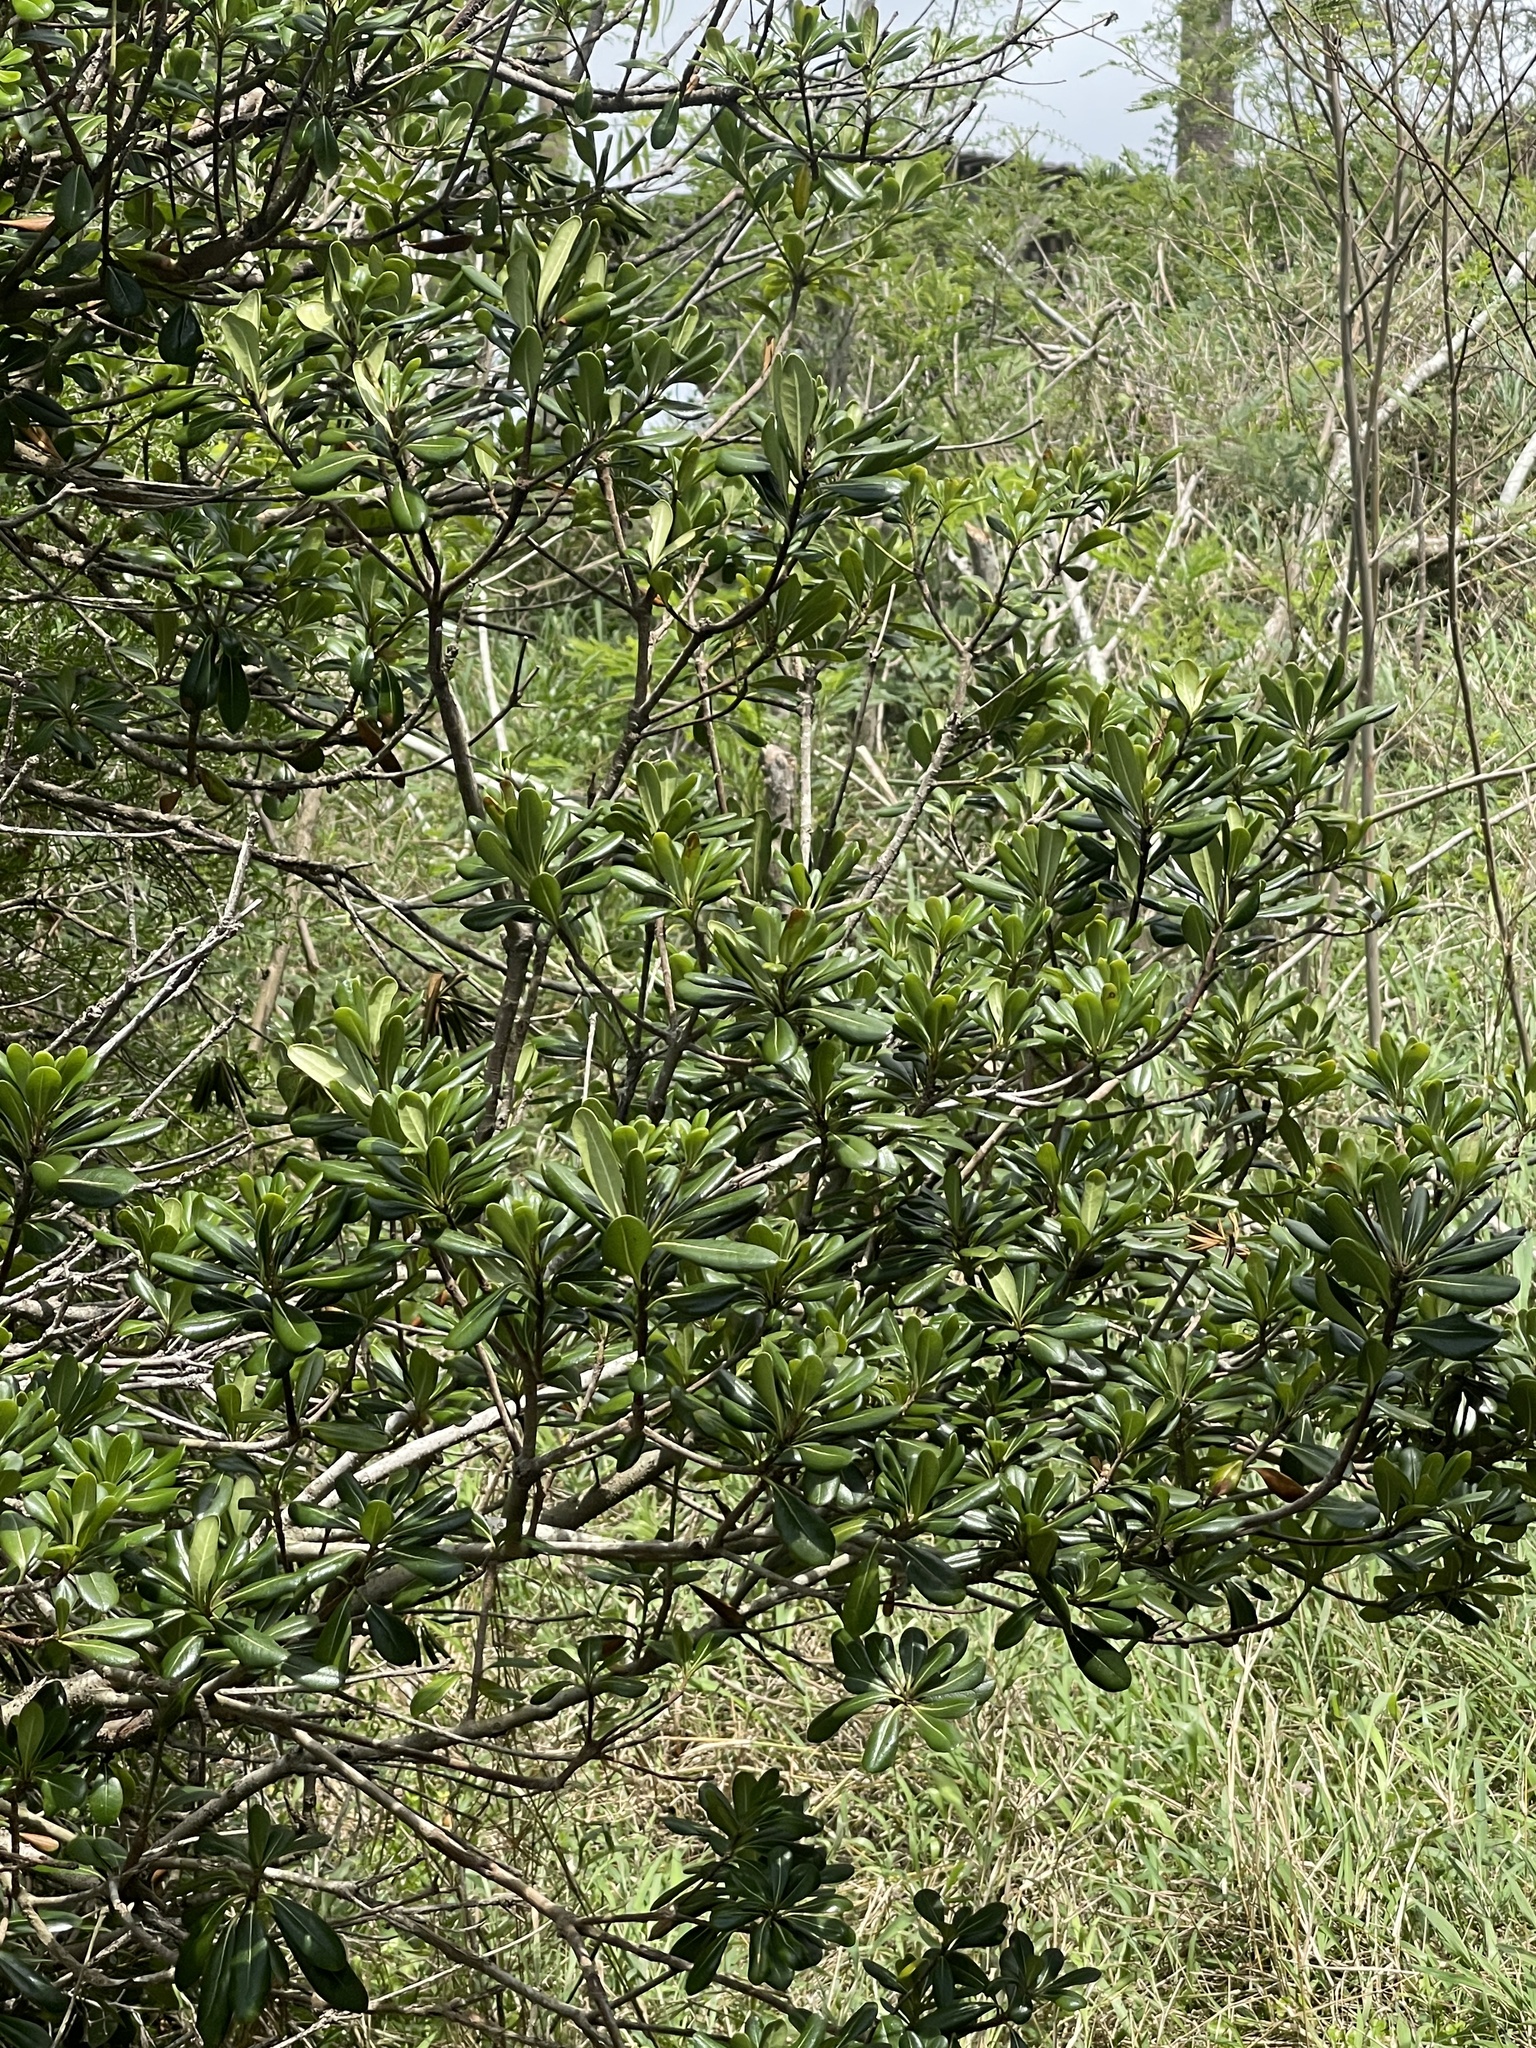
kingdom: Plantae
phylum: Tracheophyta
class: Magnoliopsida
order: Apiales
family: Pittosporaceae
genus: Pittosporum
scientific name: Pittosporum tobira
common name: Japanese cheesewood
